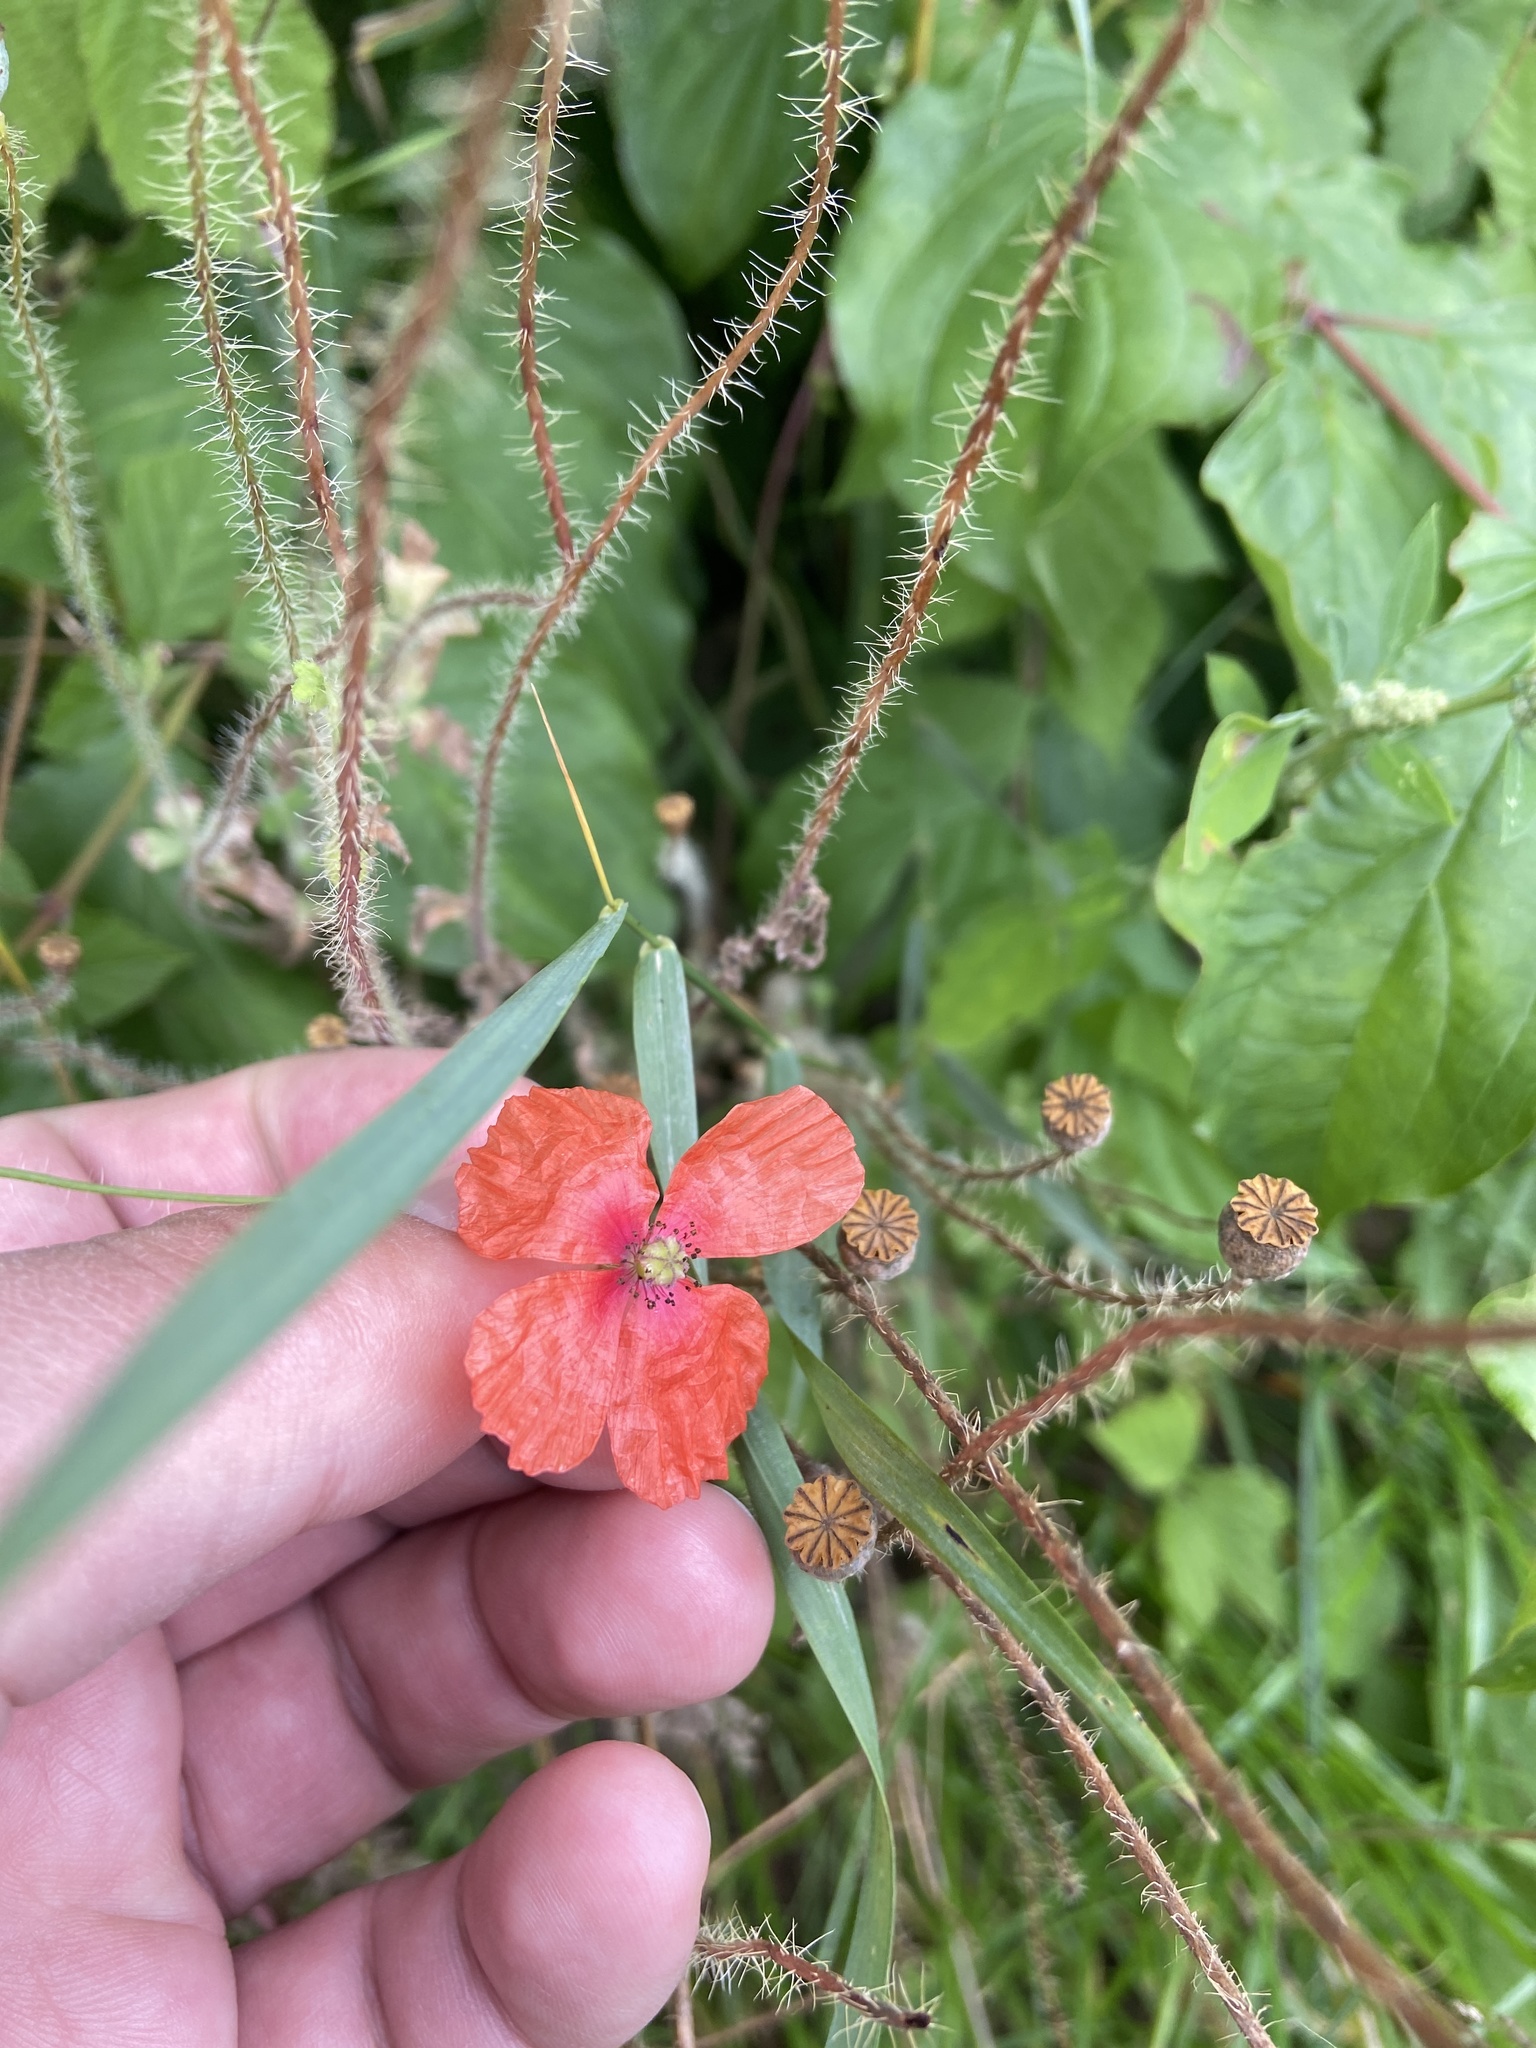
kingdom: Plantae
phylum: Tracheophyta
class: Magnoliopsida
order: Ranunculales
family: Papaveraceae
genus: Papaver
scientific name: Papaver dubium
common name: Long-headed poppy
